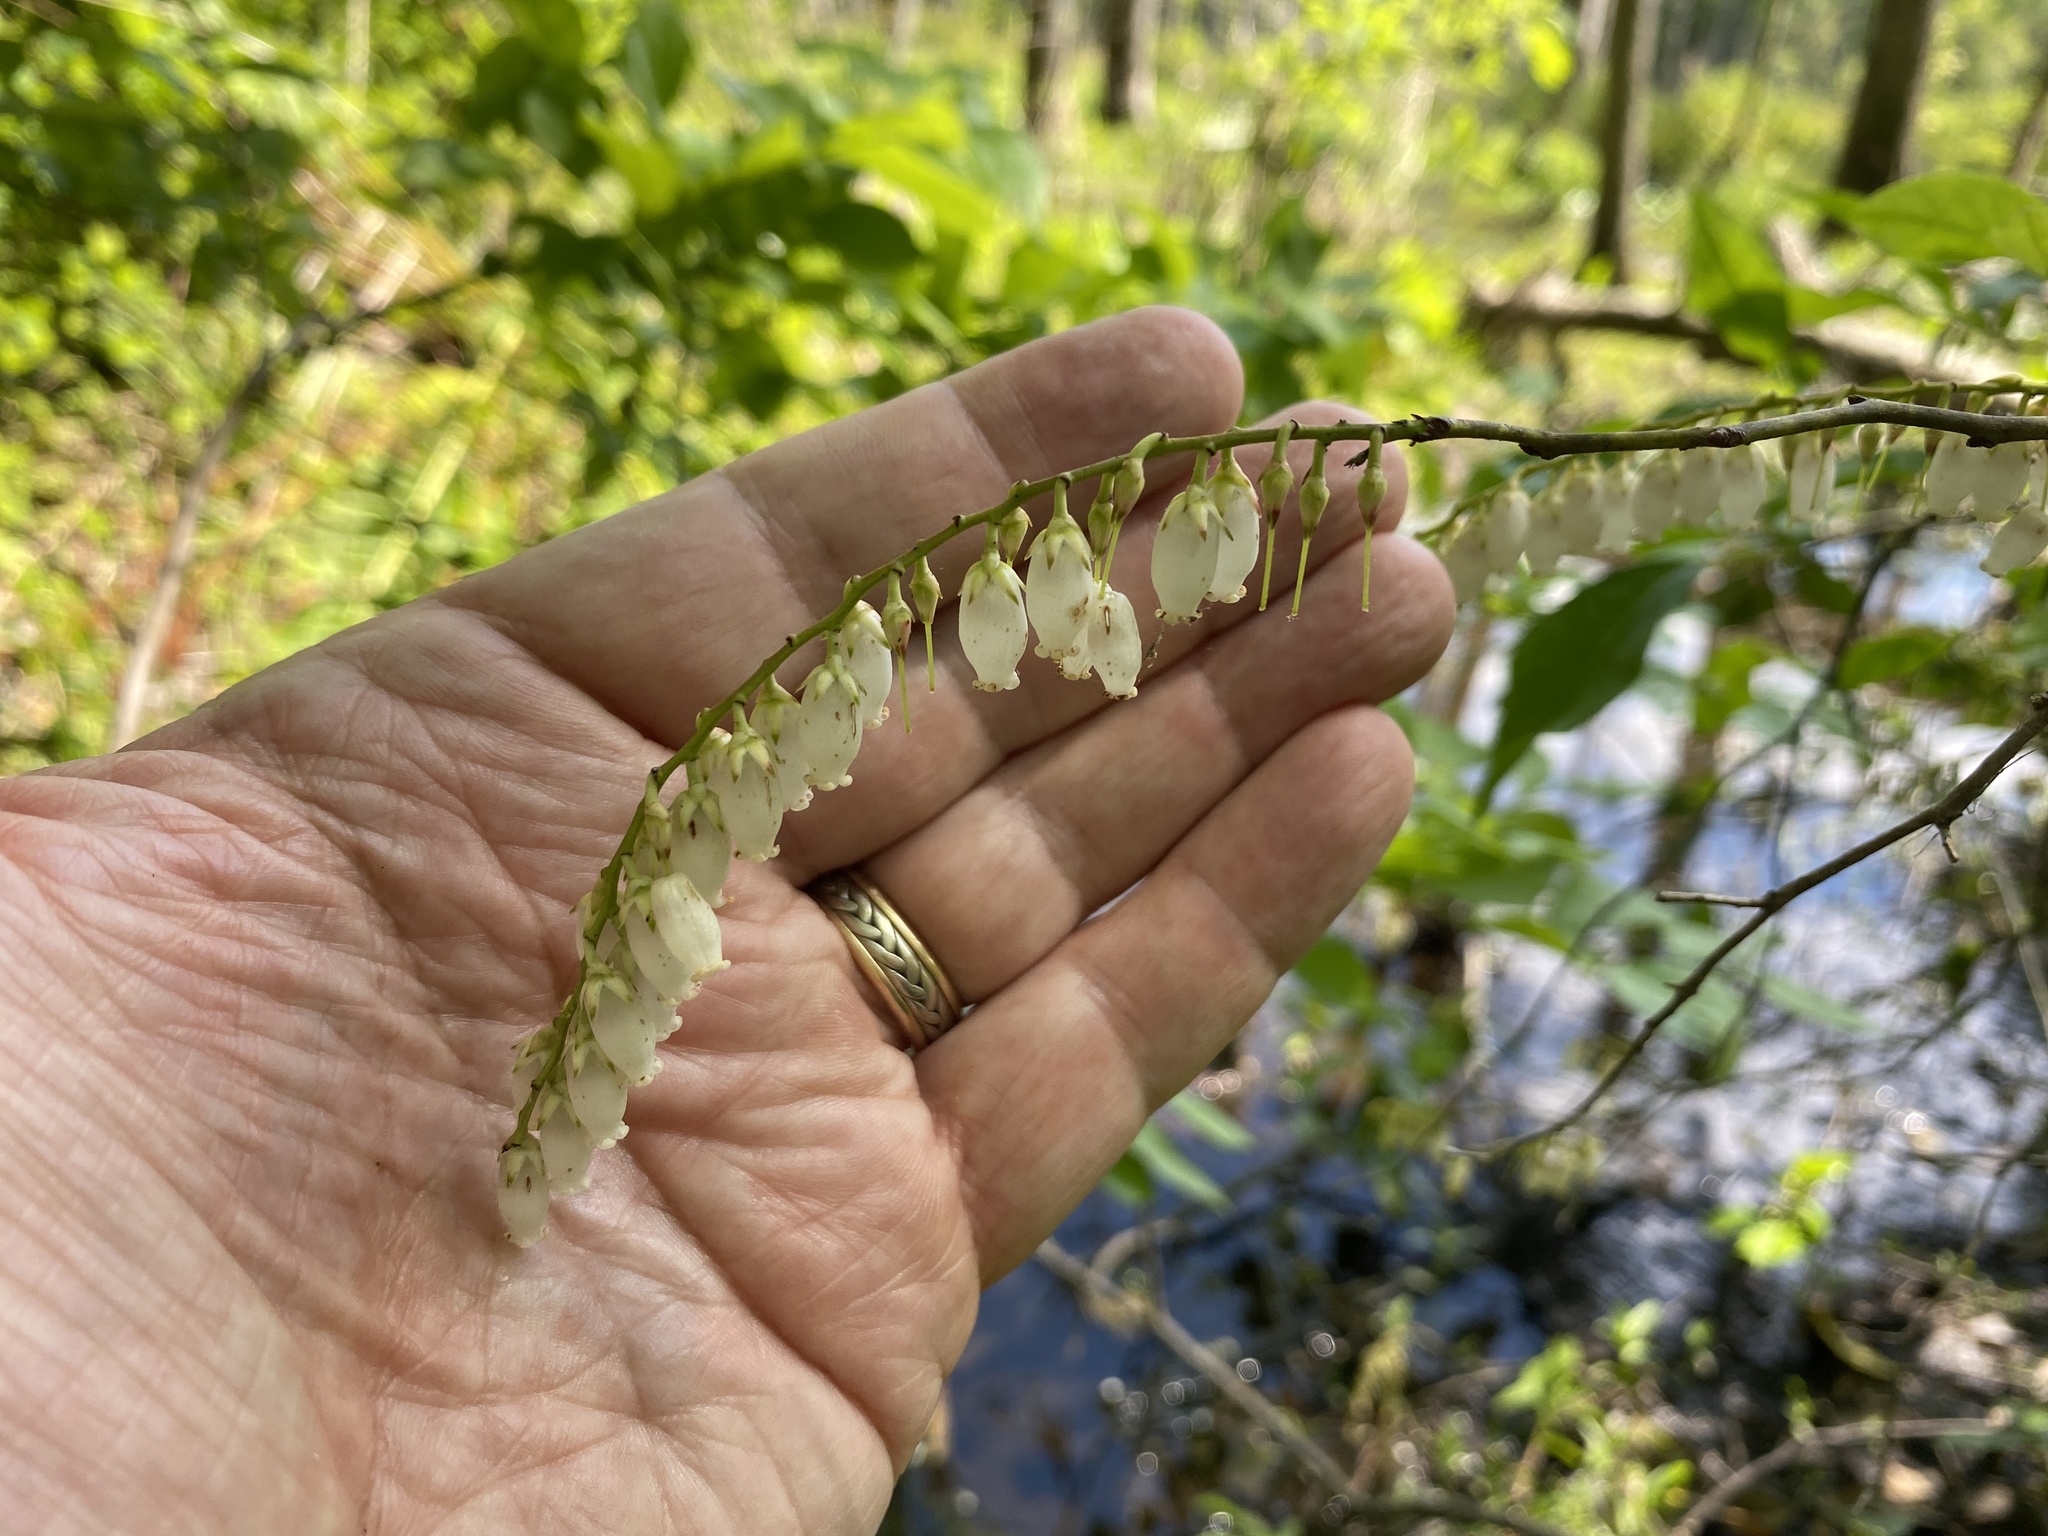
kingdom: Plantae
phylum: Tracheophyta
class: Magnoliopsida
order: Ericales
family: Ericaceae
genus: Eubotrys
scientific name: Eubotrys racemosa
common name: Fetterbush
